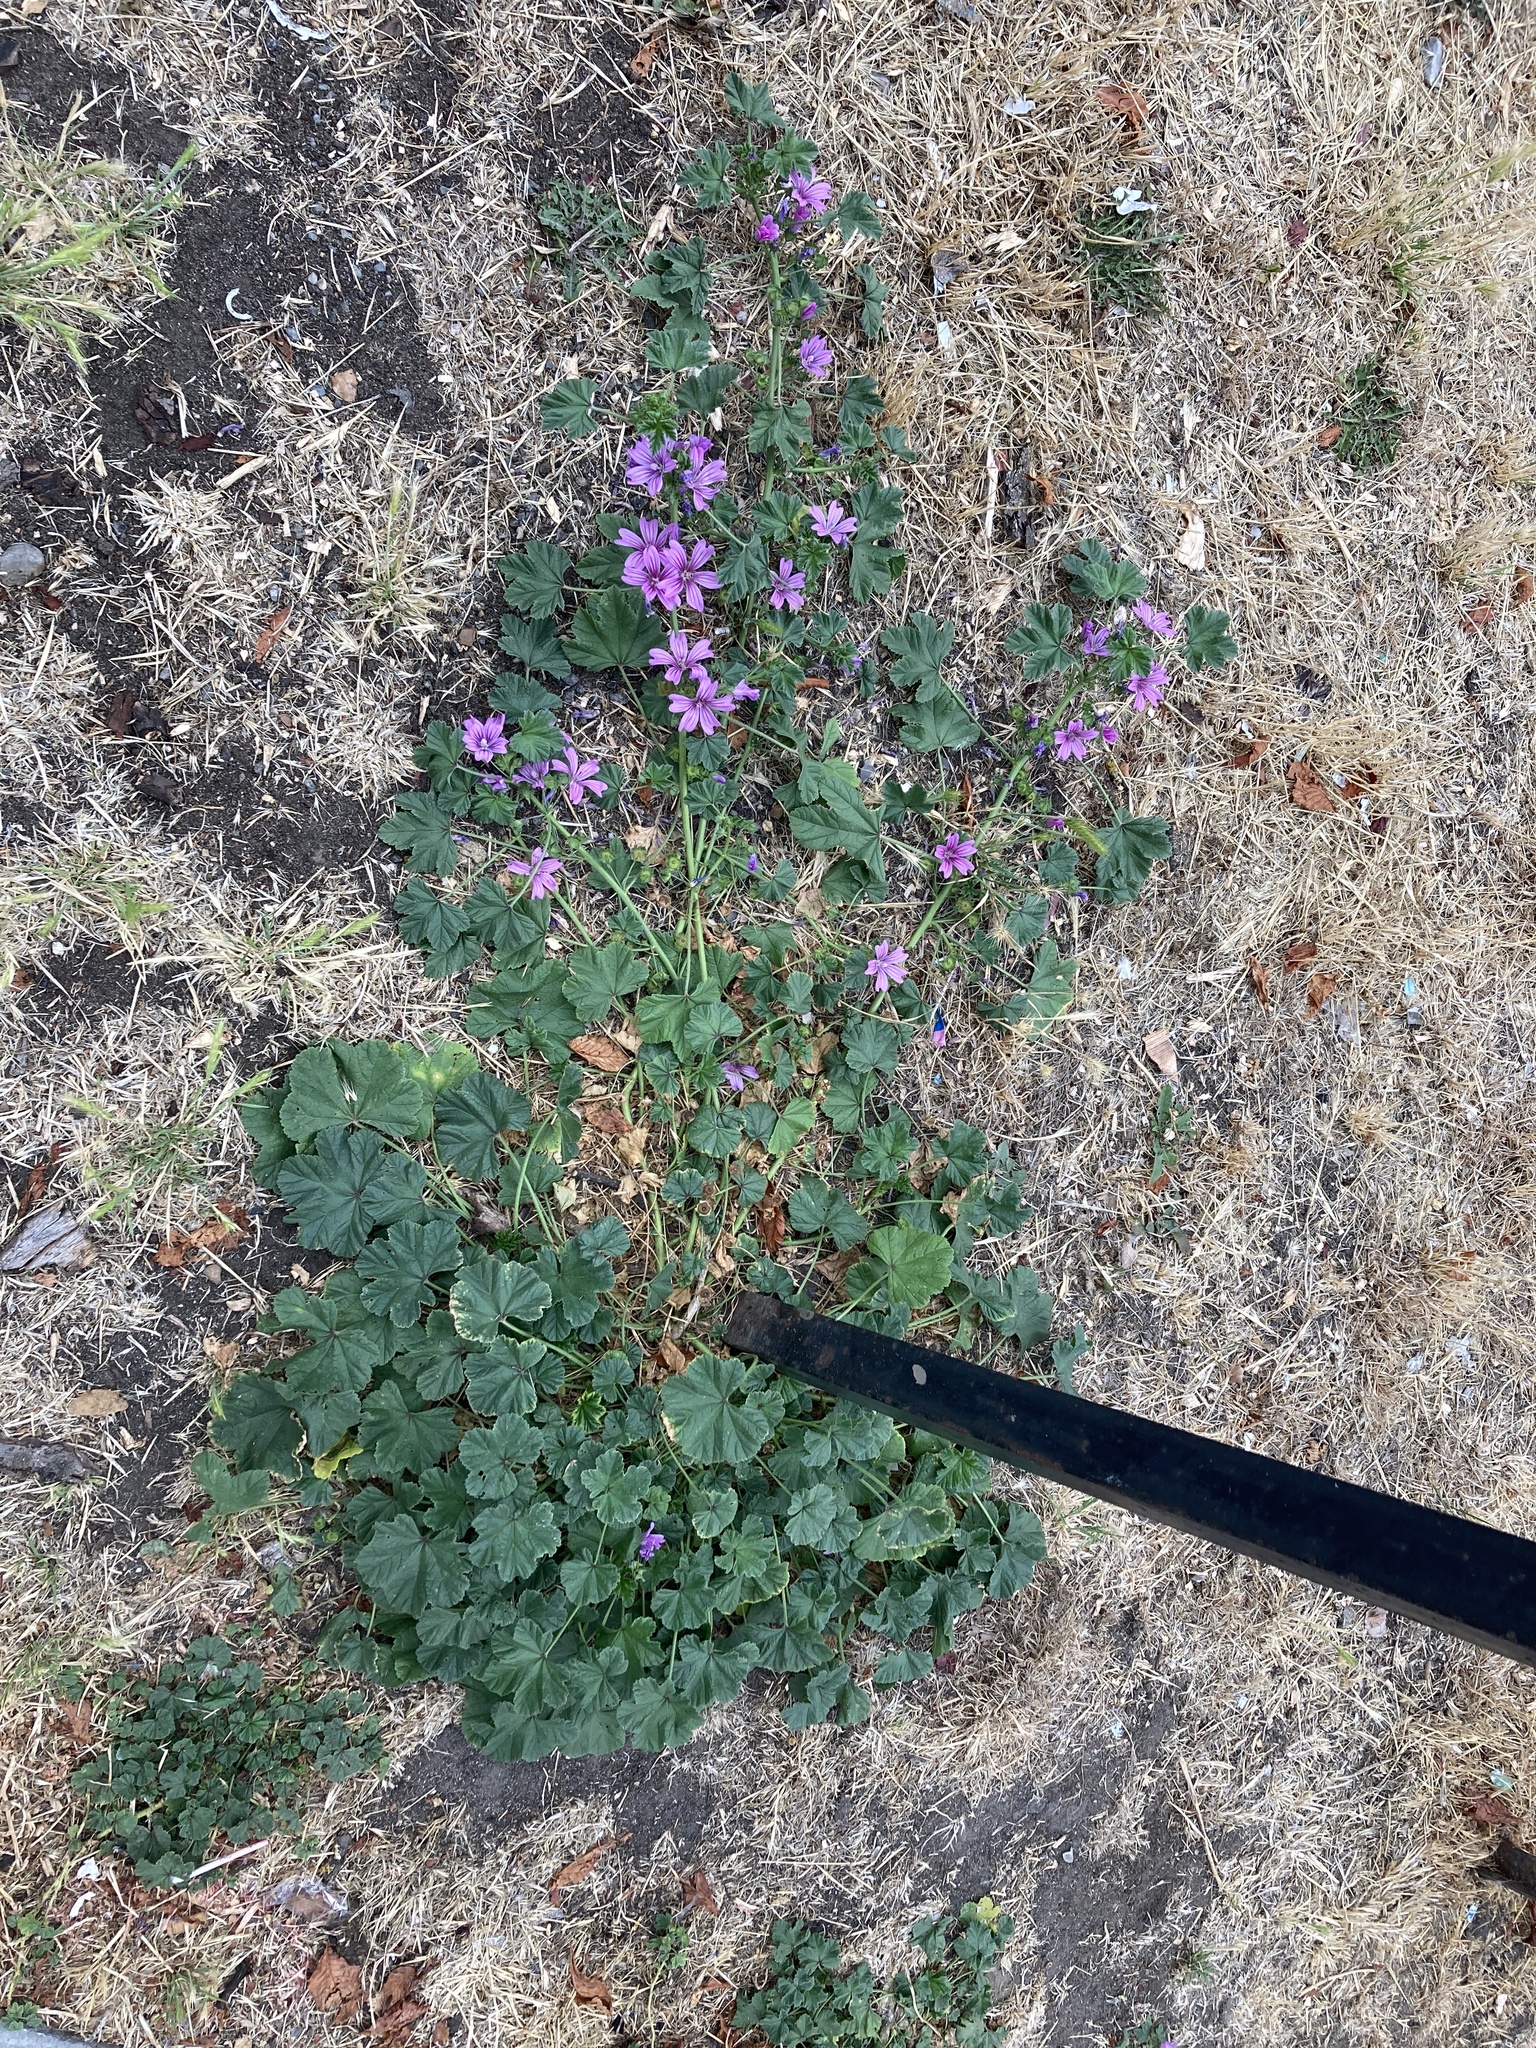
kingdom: Plantae
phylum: Tracheophyta
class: Magnoliopsida
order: Malvales
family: Malvaceae
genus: Malva
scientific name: Malva sylvestris
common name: Common mallow
